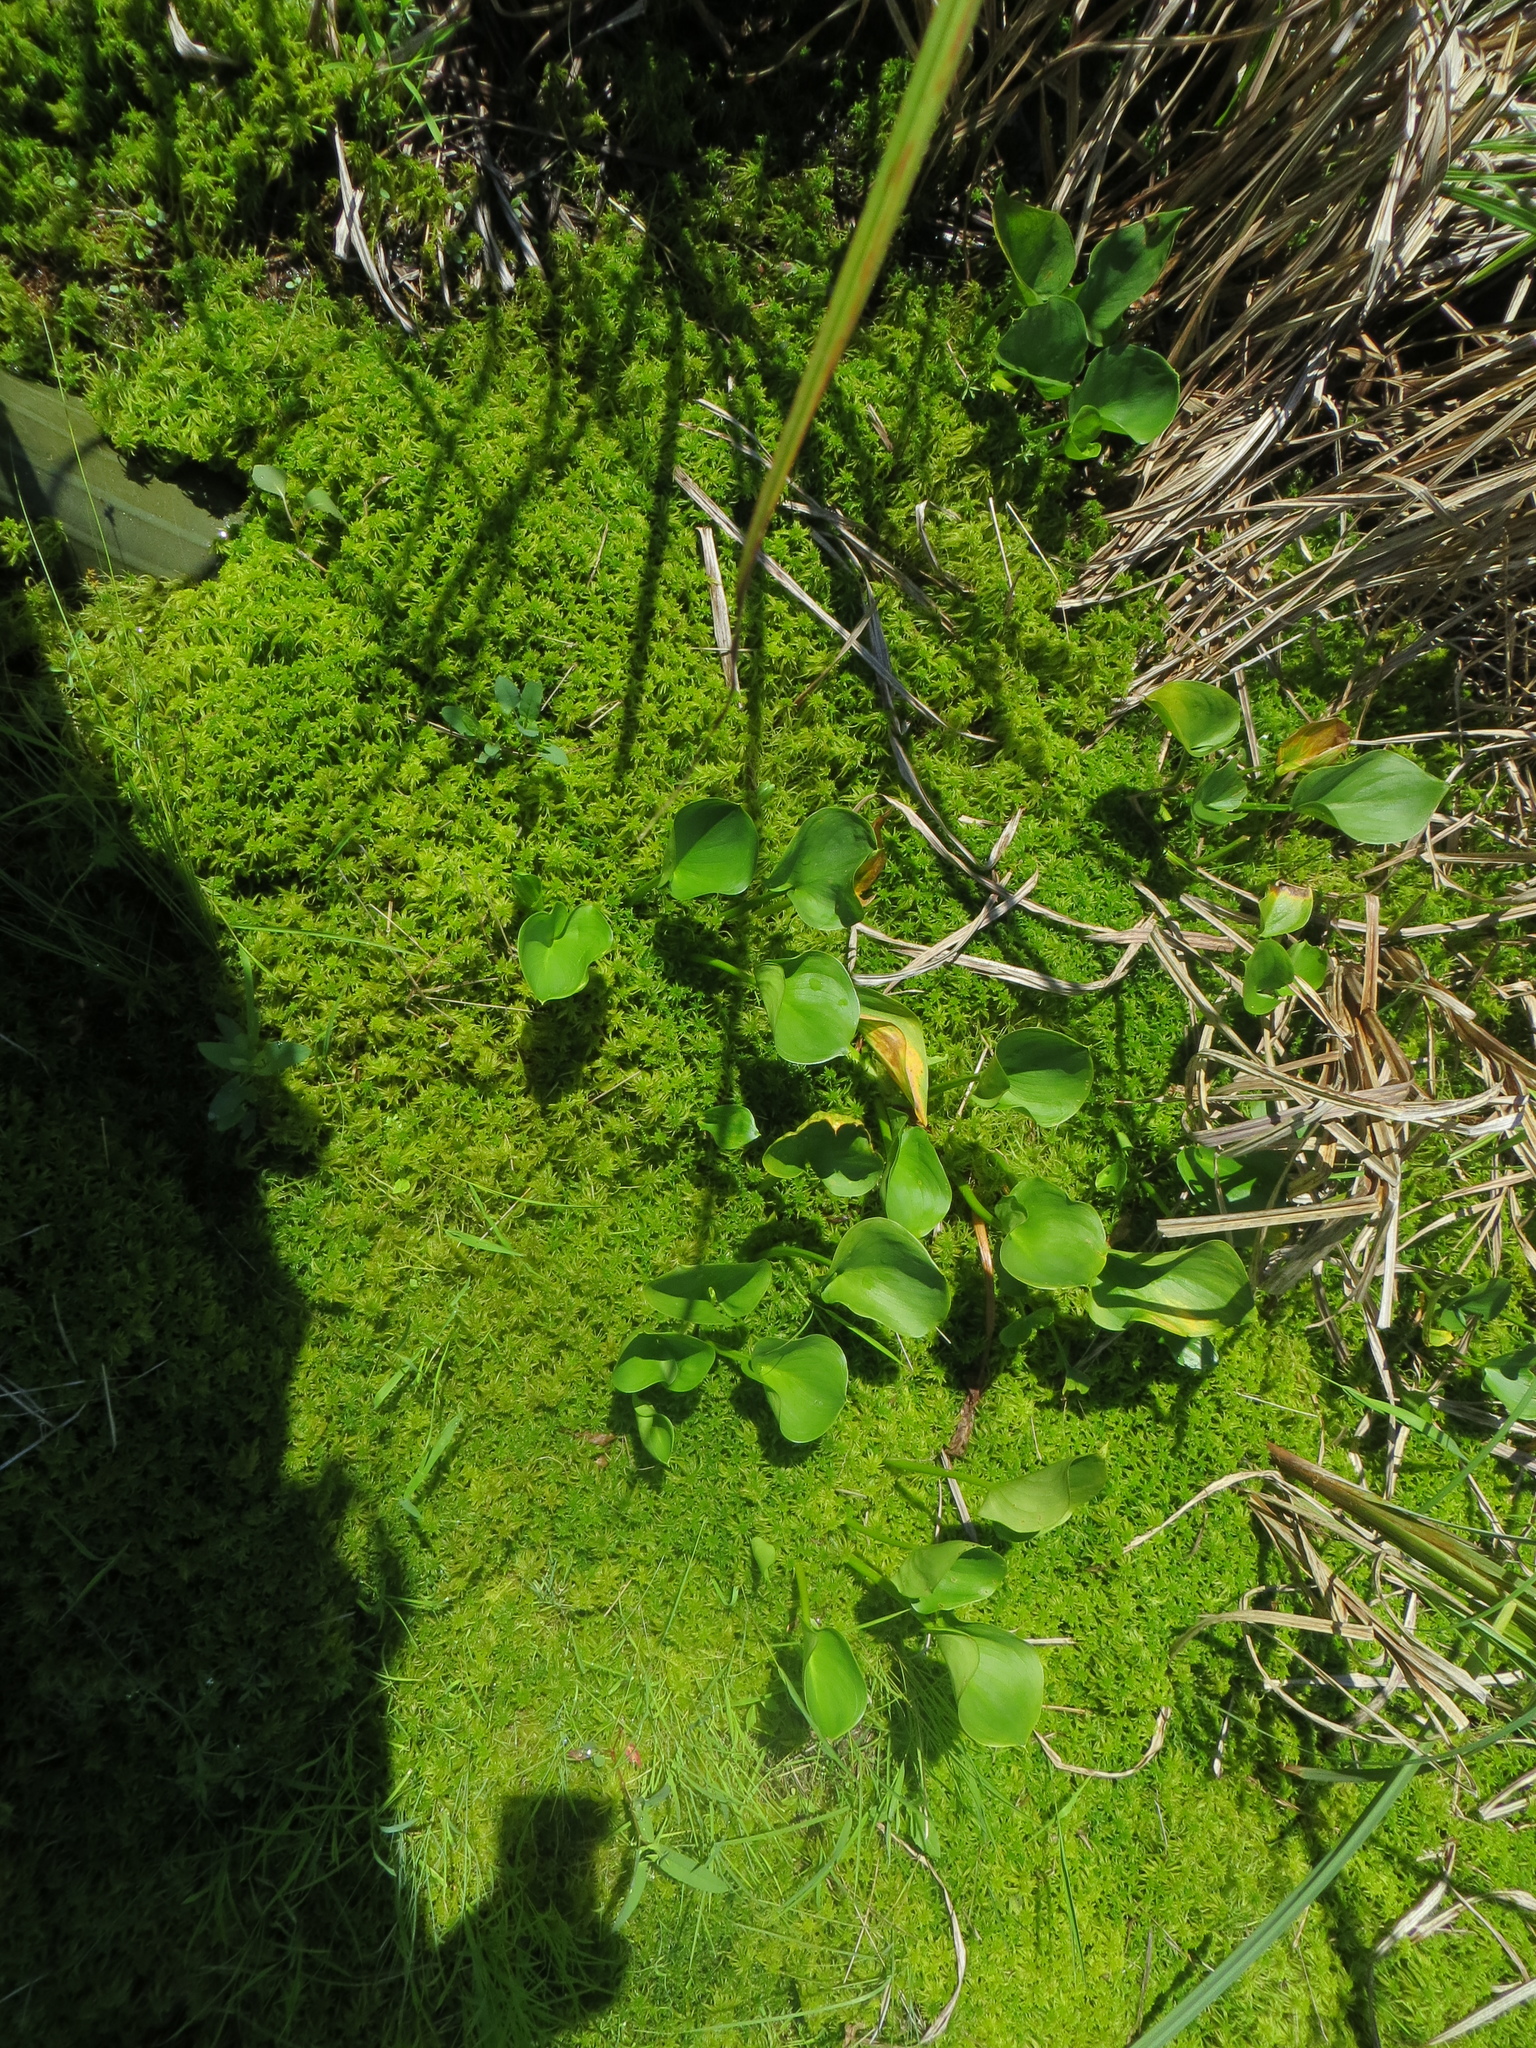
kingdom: Plantae
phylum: Tracheophyta
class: Liliopsida
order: Alismatales
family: Araceae
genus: Calla
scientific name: Calla palustris
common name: Bog arum
